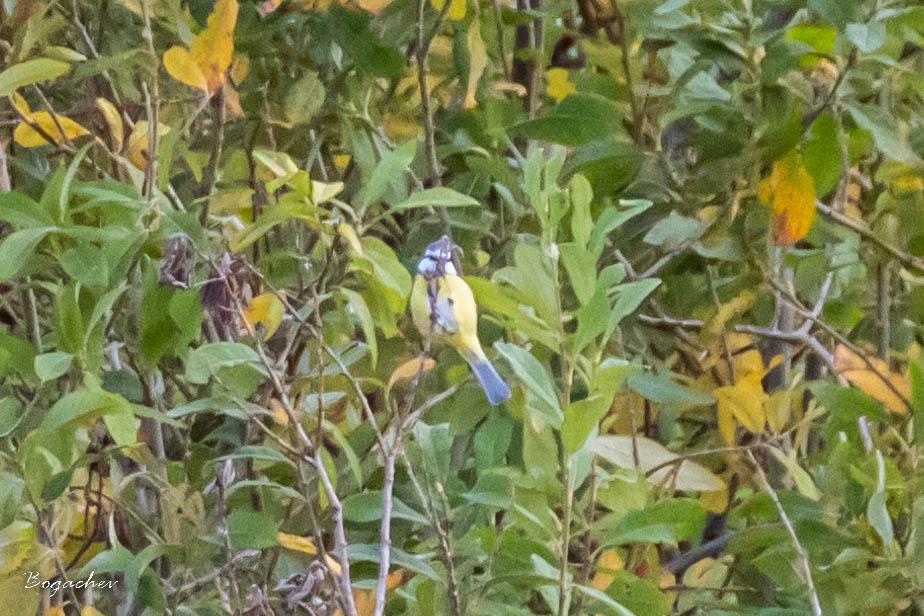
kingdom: Animalia
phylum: Chordata
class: Aves
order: Passeriformes
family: Paridae
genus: Cyanistes
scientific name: Cyanistes caeruleus
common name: Eurasian blue tit
